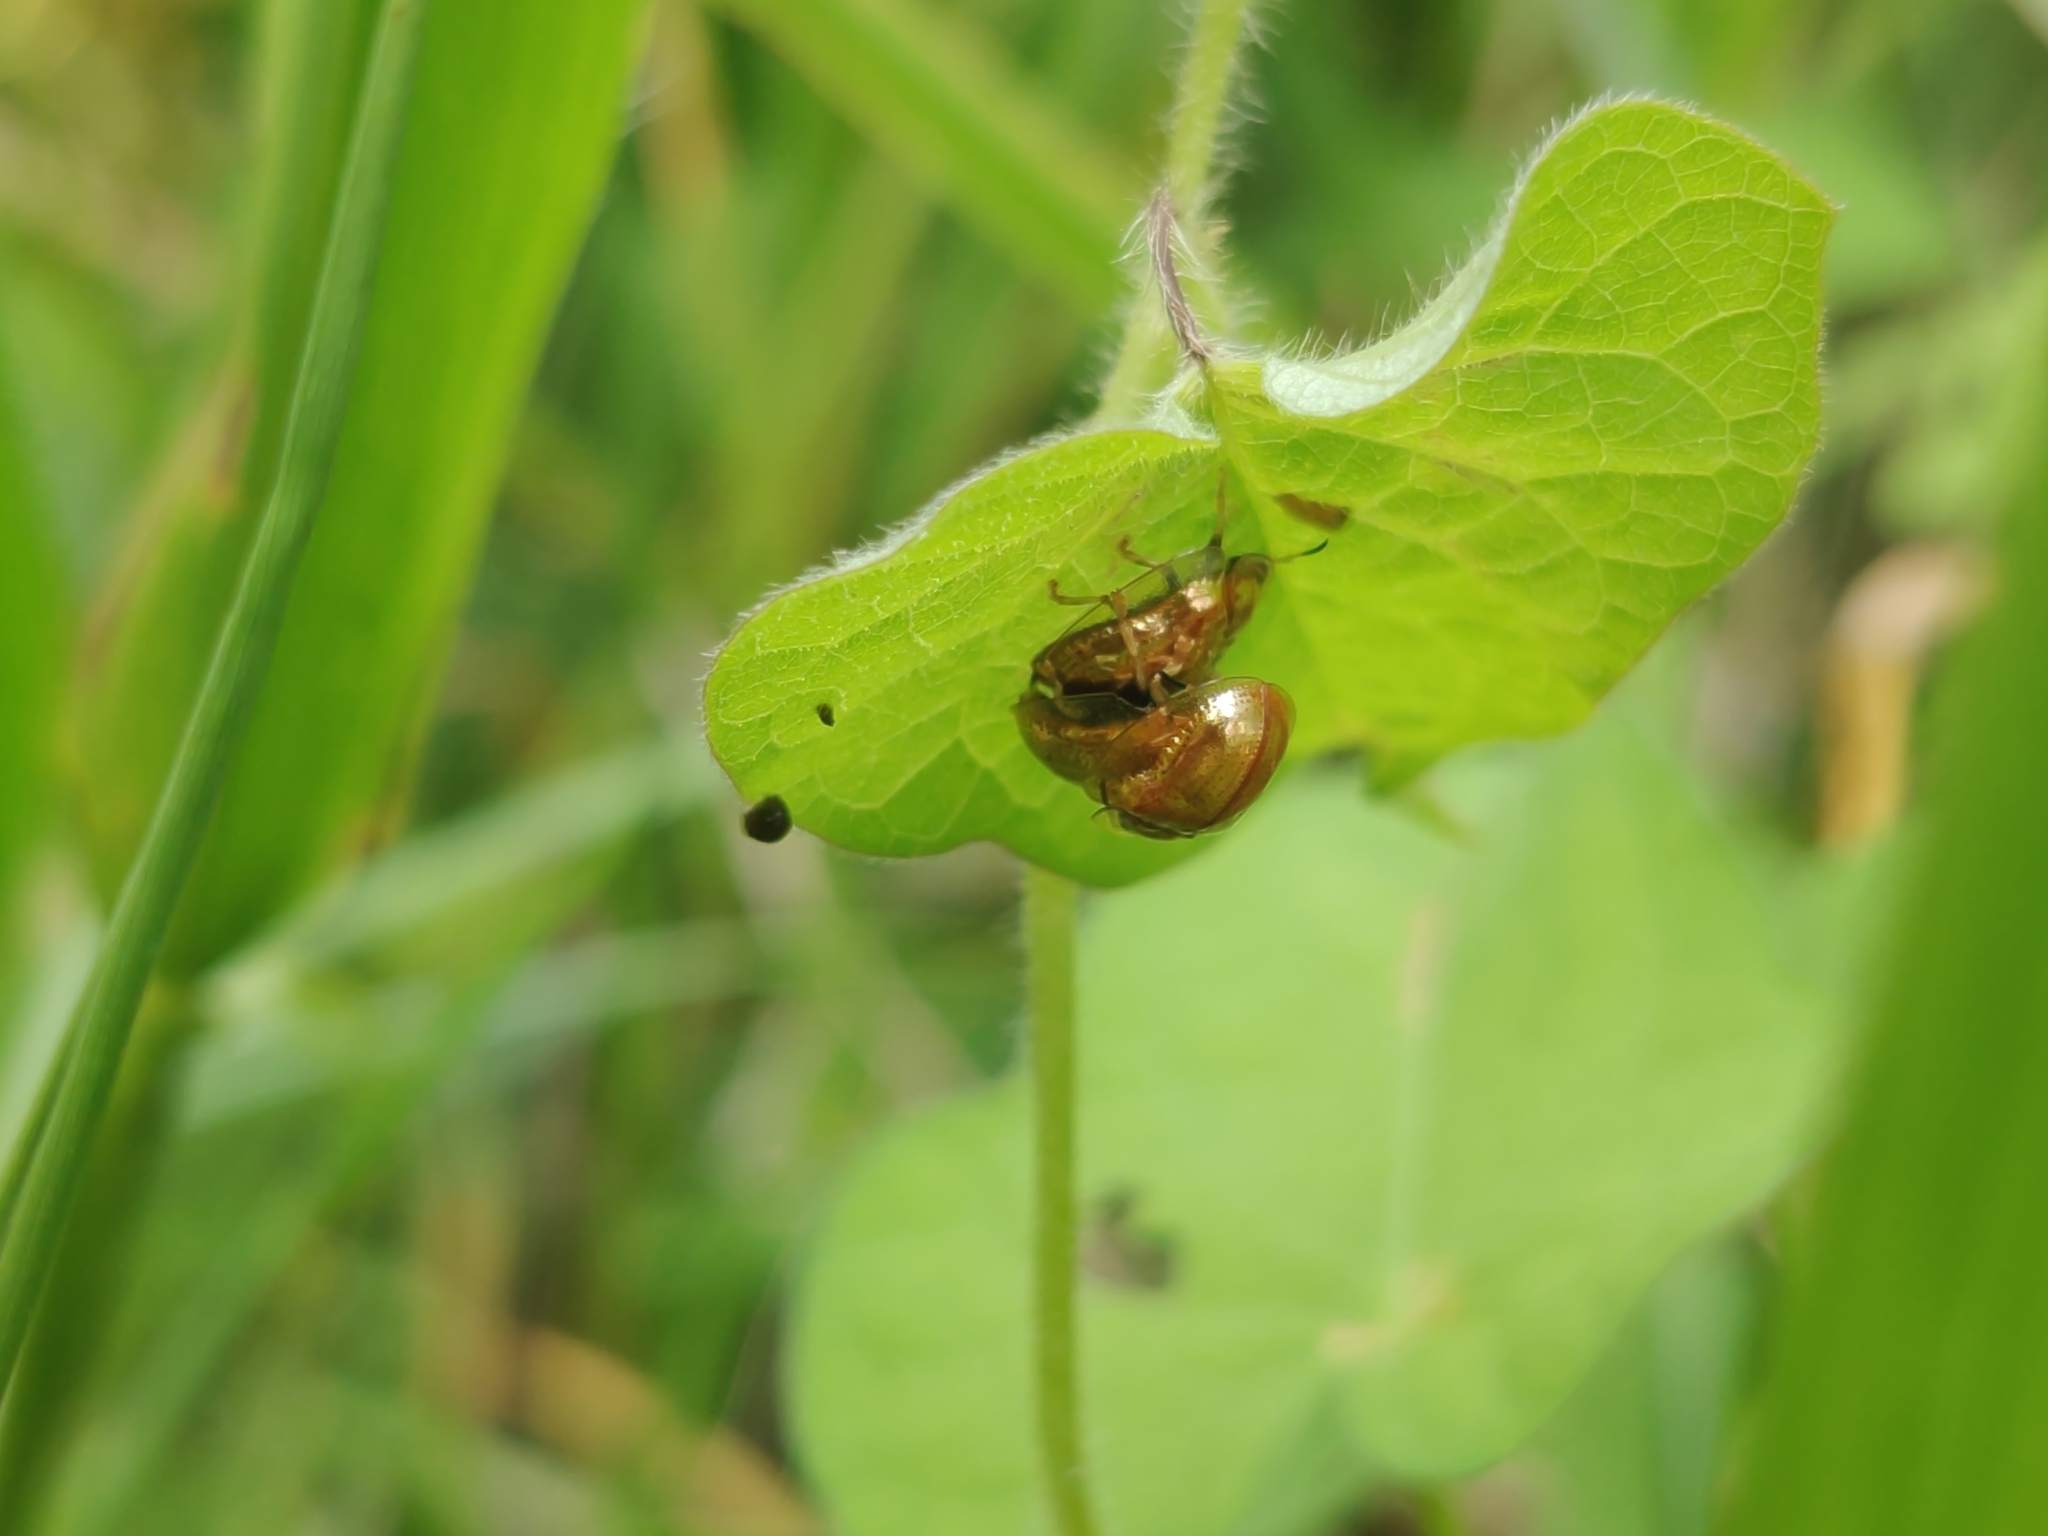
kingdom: Animalia
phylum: Arthropoda
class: Insecta
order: Coleoptera
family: Chrysomelidae
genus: Charidotella
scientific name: Charidotella sexpunctata
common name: Golden tortoise beetle
